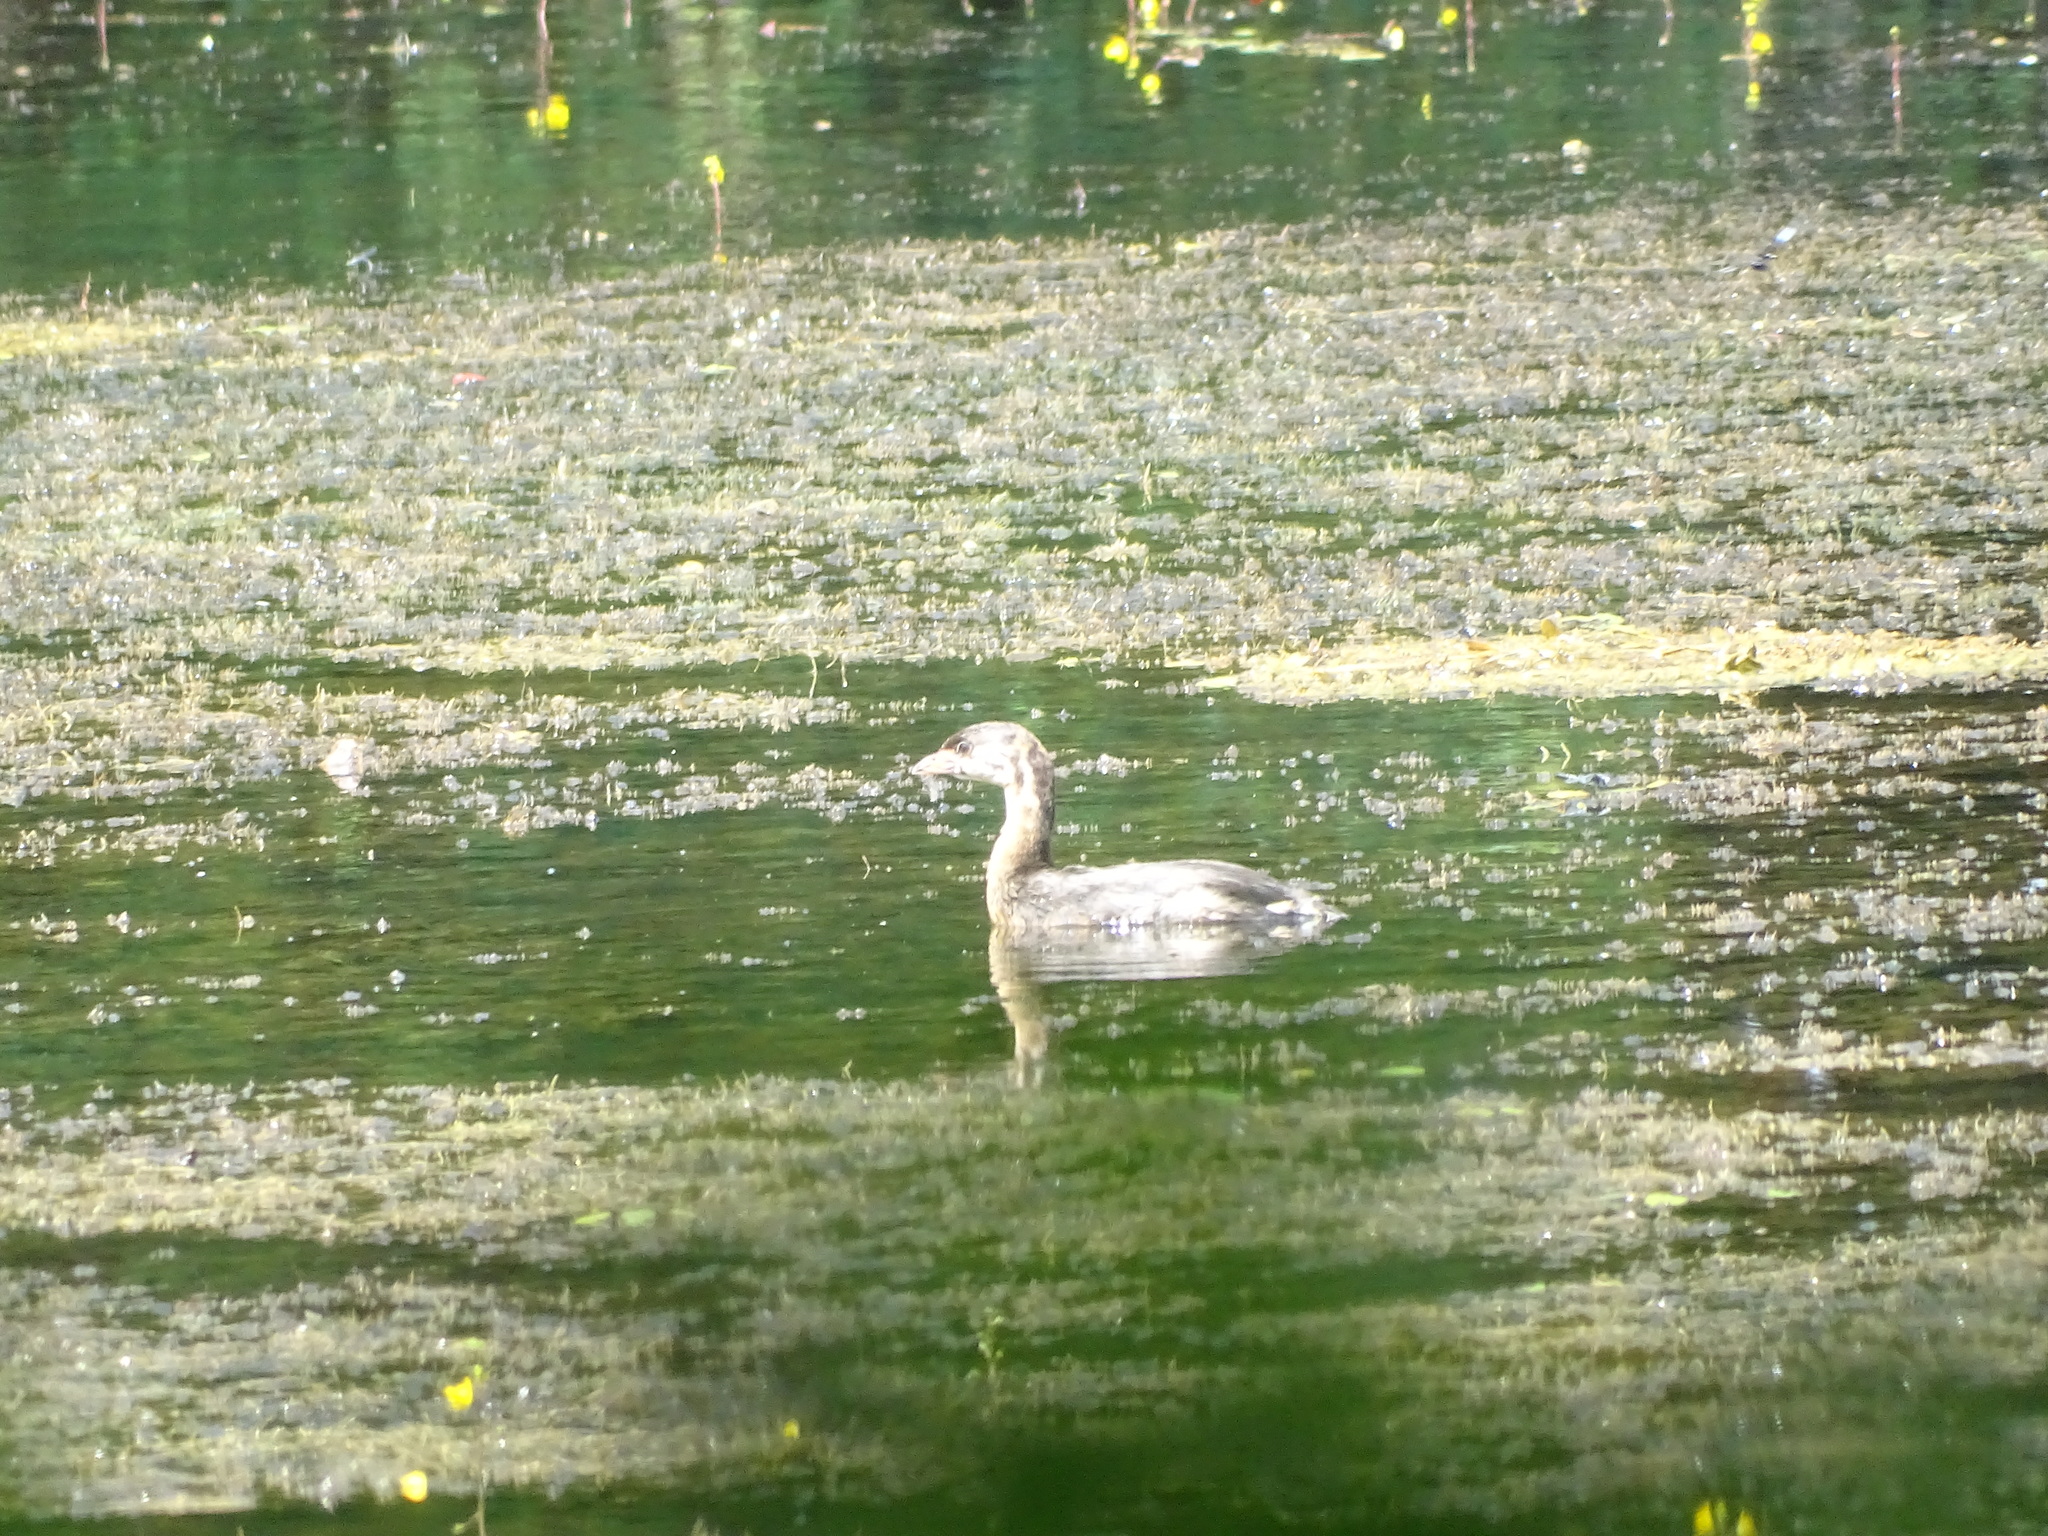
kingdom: Animalia
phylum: Chordata
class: Aves
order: Podicipediformes
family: Podicipedidae
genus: Podilymbus
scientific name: Podilymbus podiceps
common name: Pied-billed grebe
